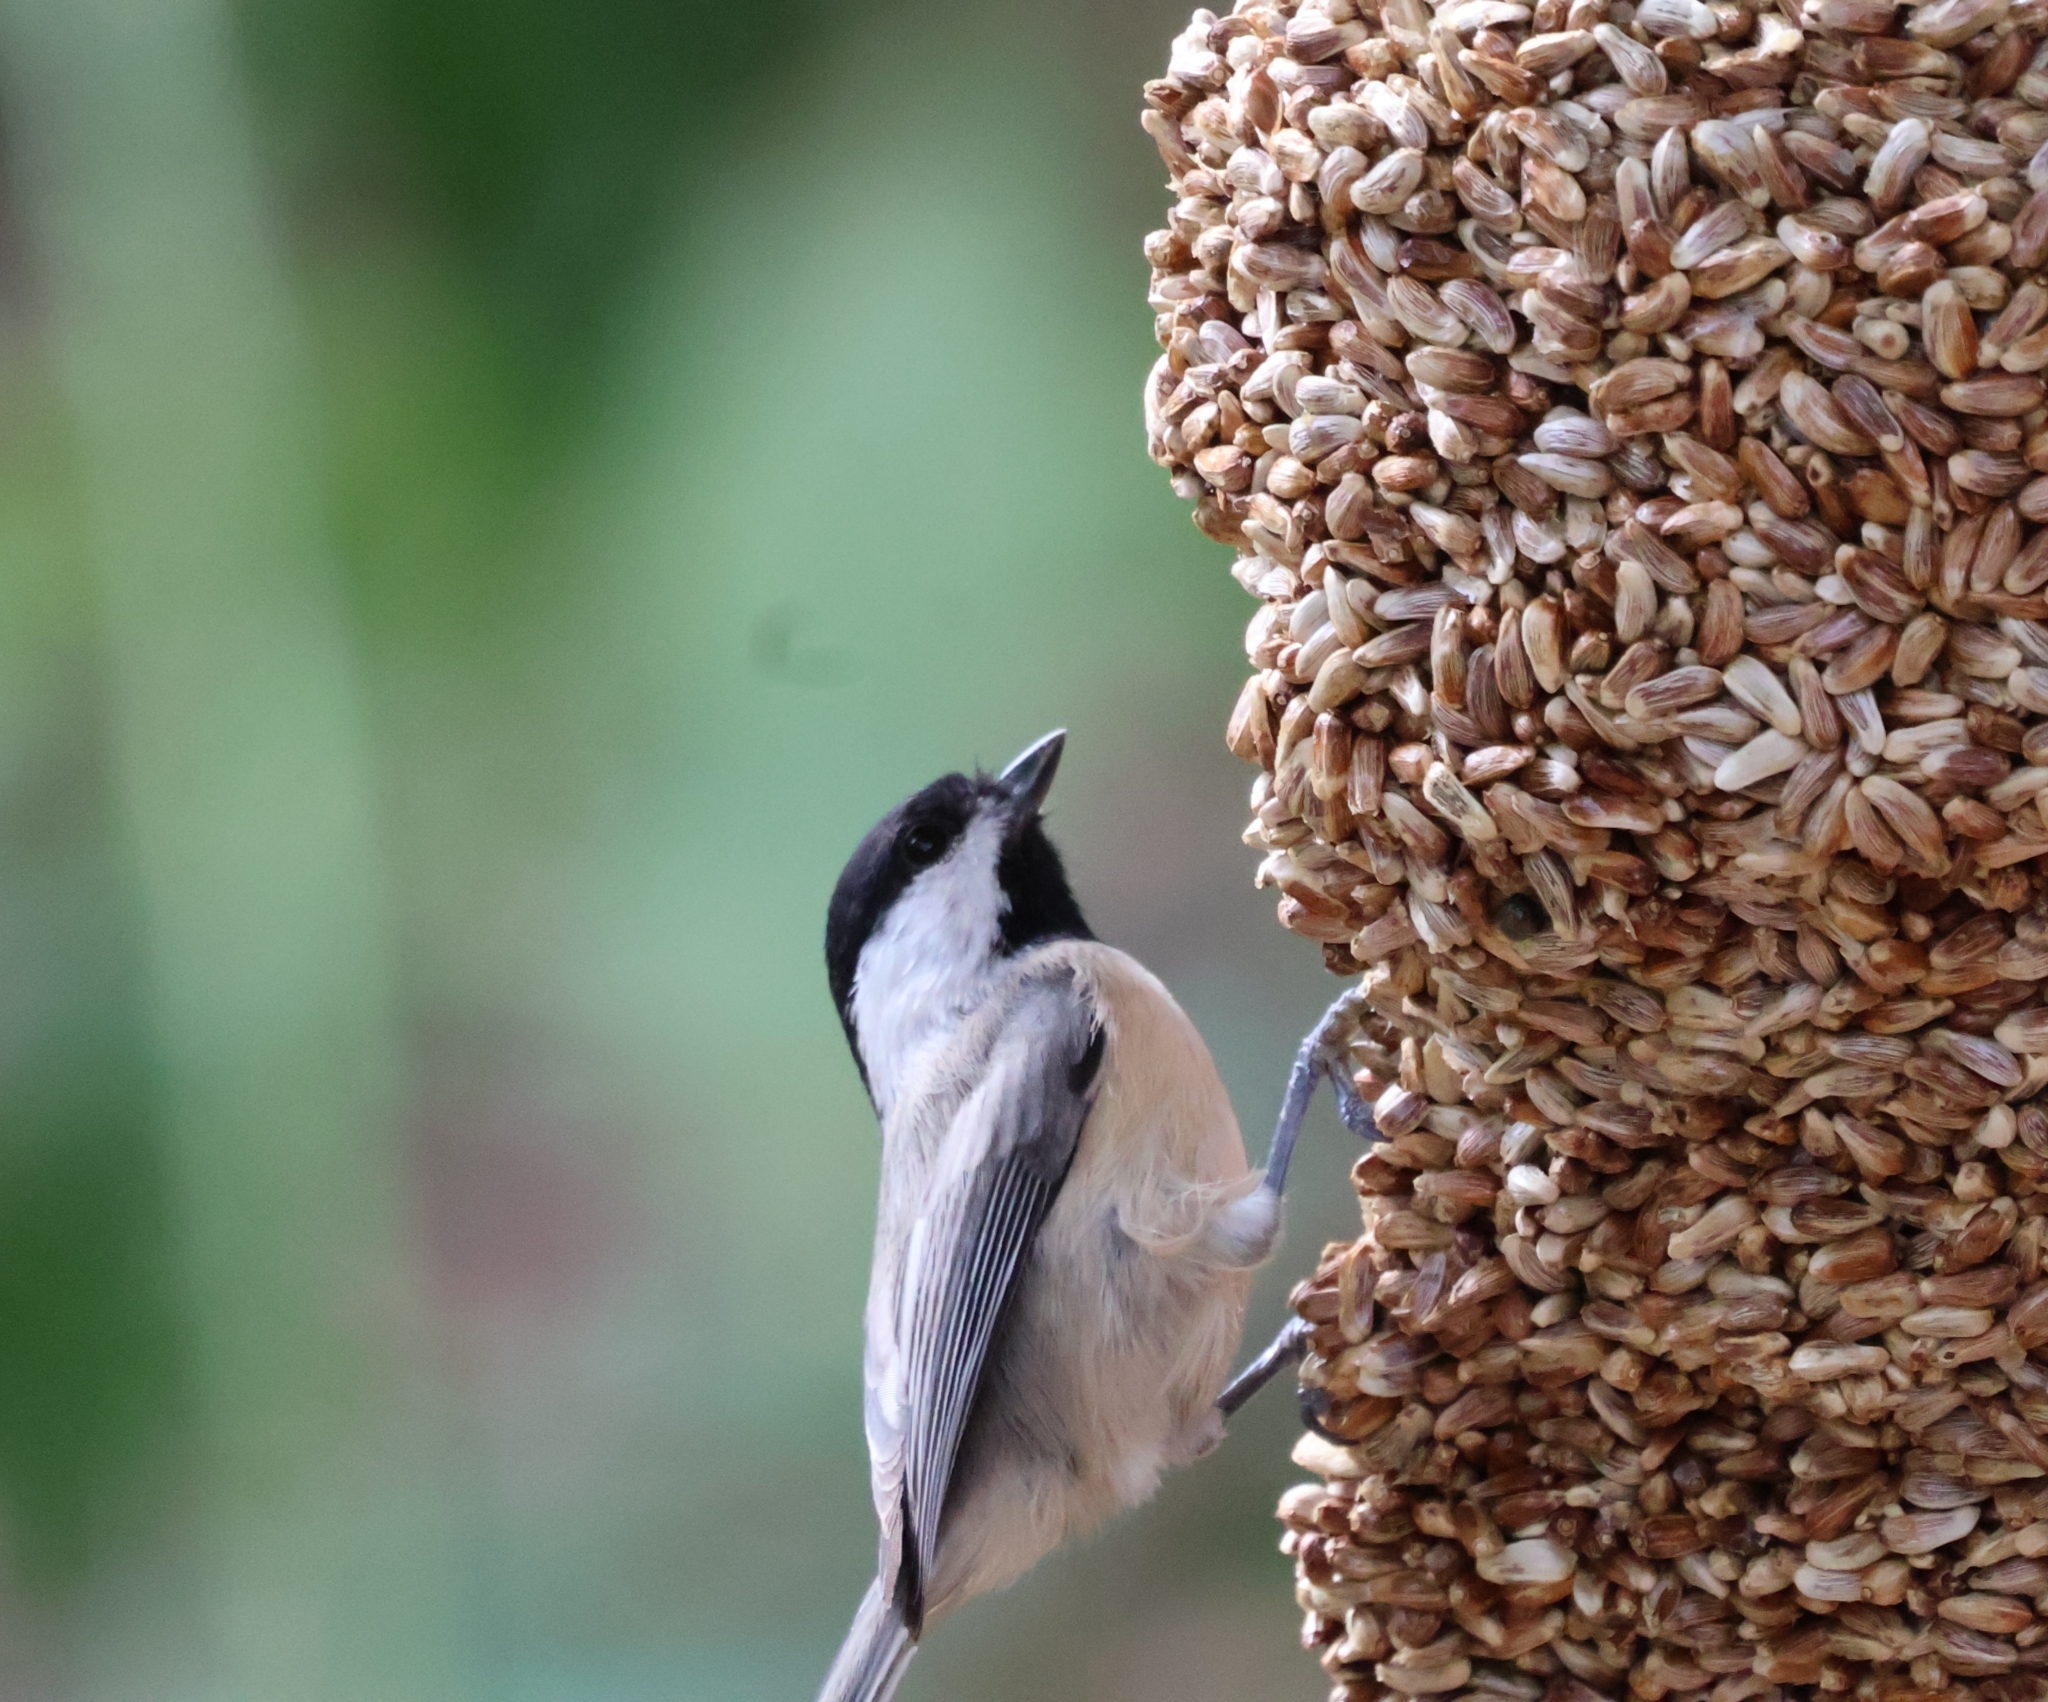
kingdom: Animalia
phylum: Chordata
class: Aves
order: Passeriformes
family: Paridae
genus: Poecile
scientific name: Poecile carolinensis
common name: Carolina chickadee
